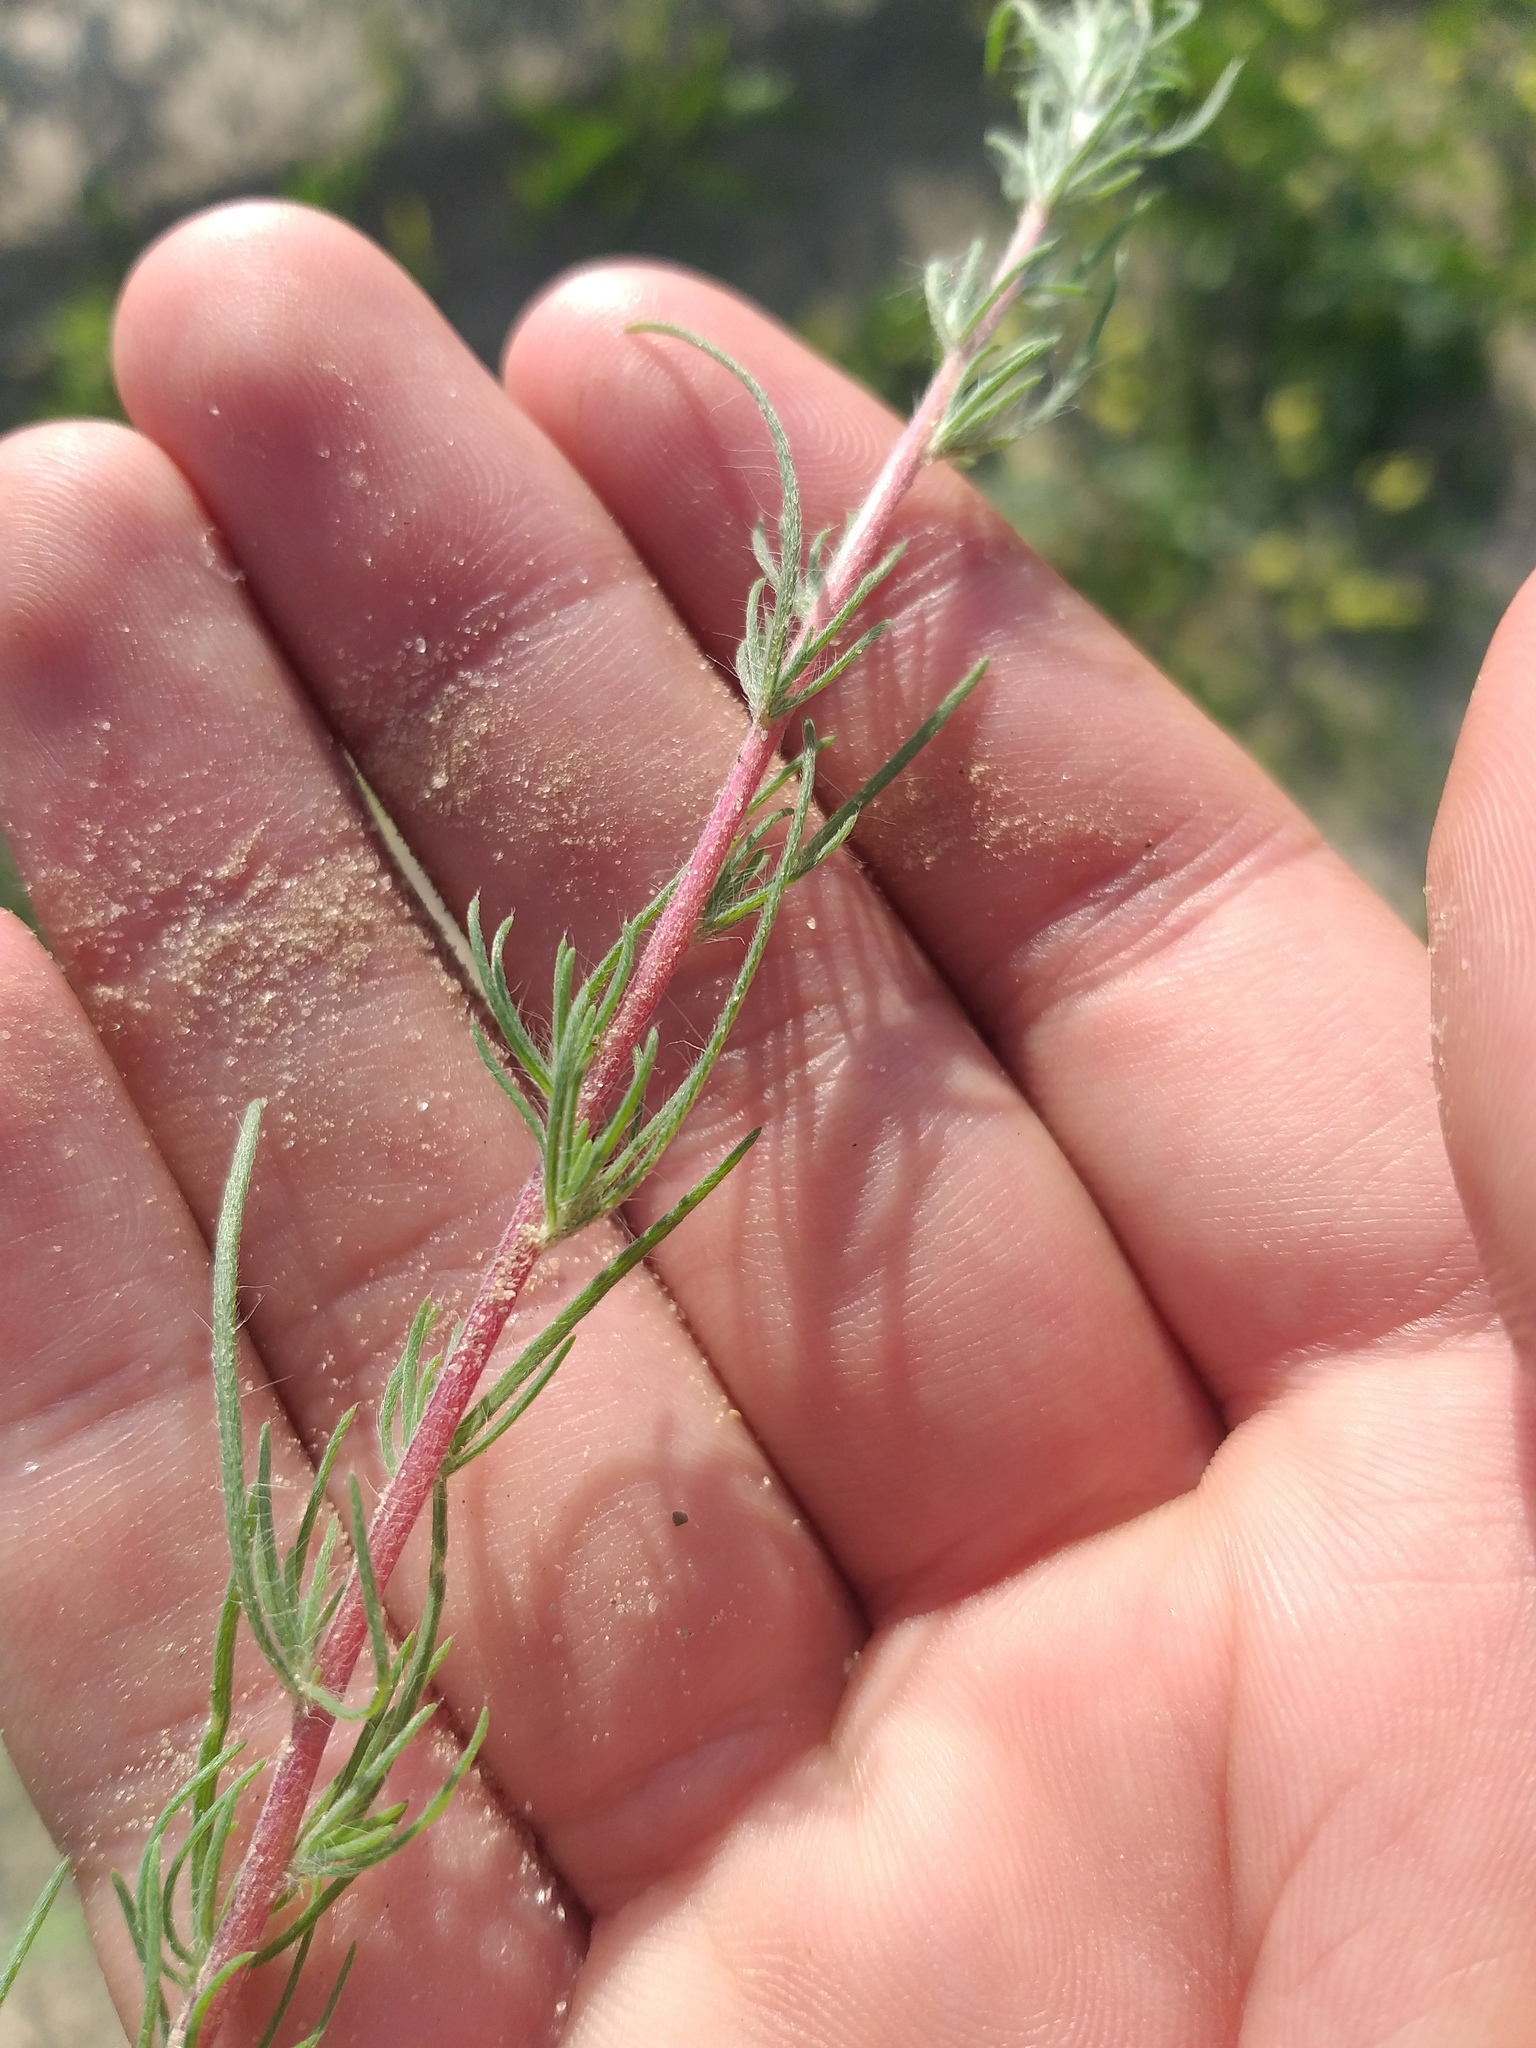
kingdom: Plantae
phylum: Tracheophyta
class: Magnoliopsida
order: Caryophyllales
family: Amaranthaceae
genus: Bassia
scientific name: Bassia laniflora
